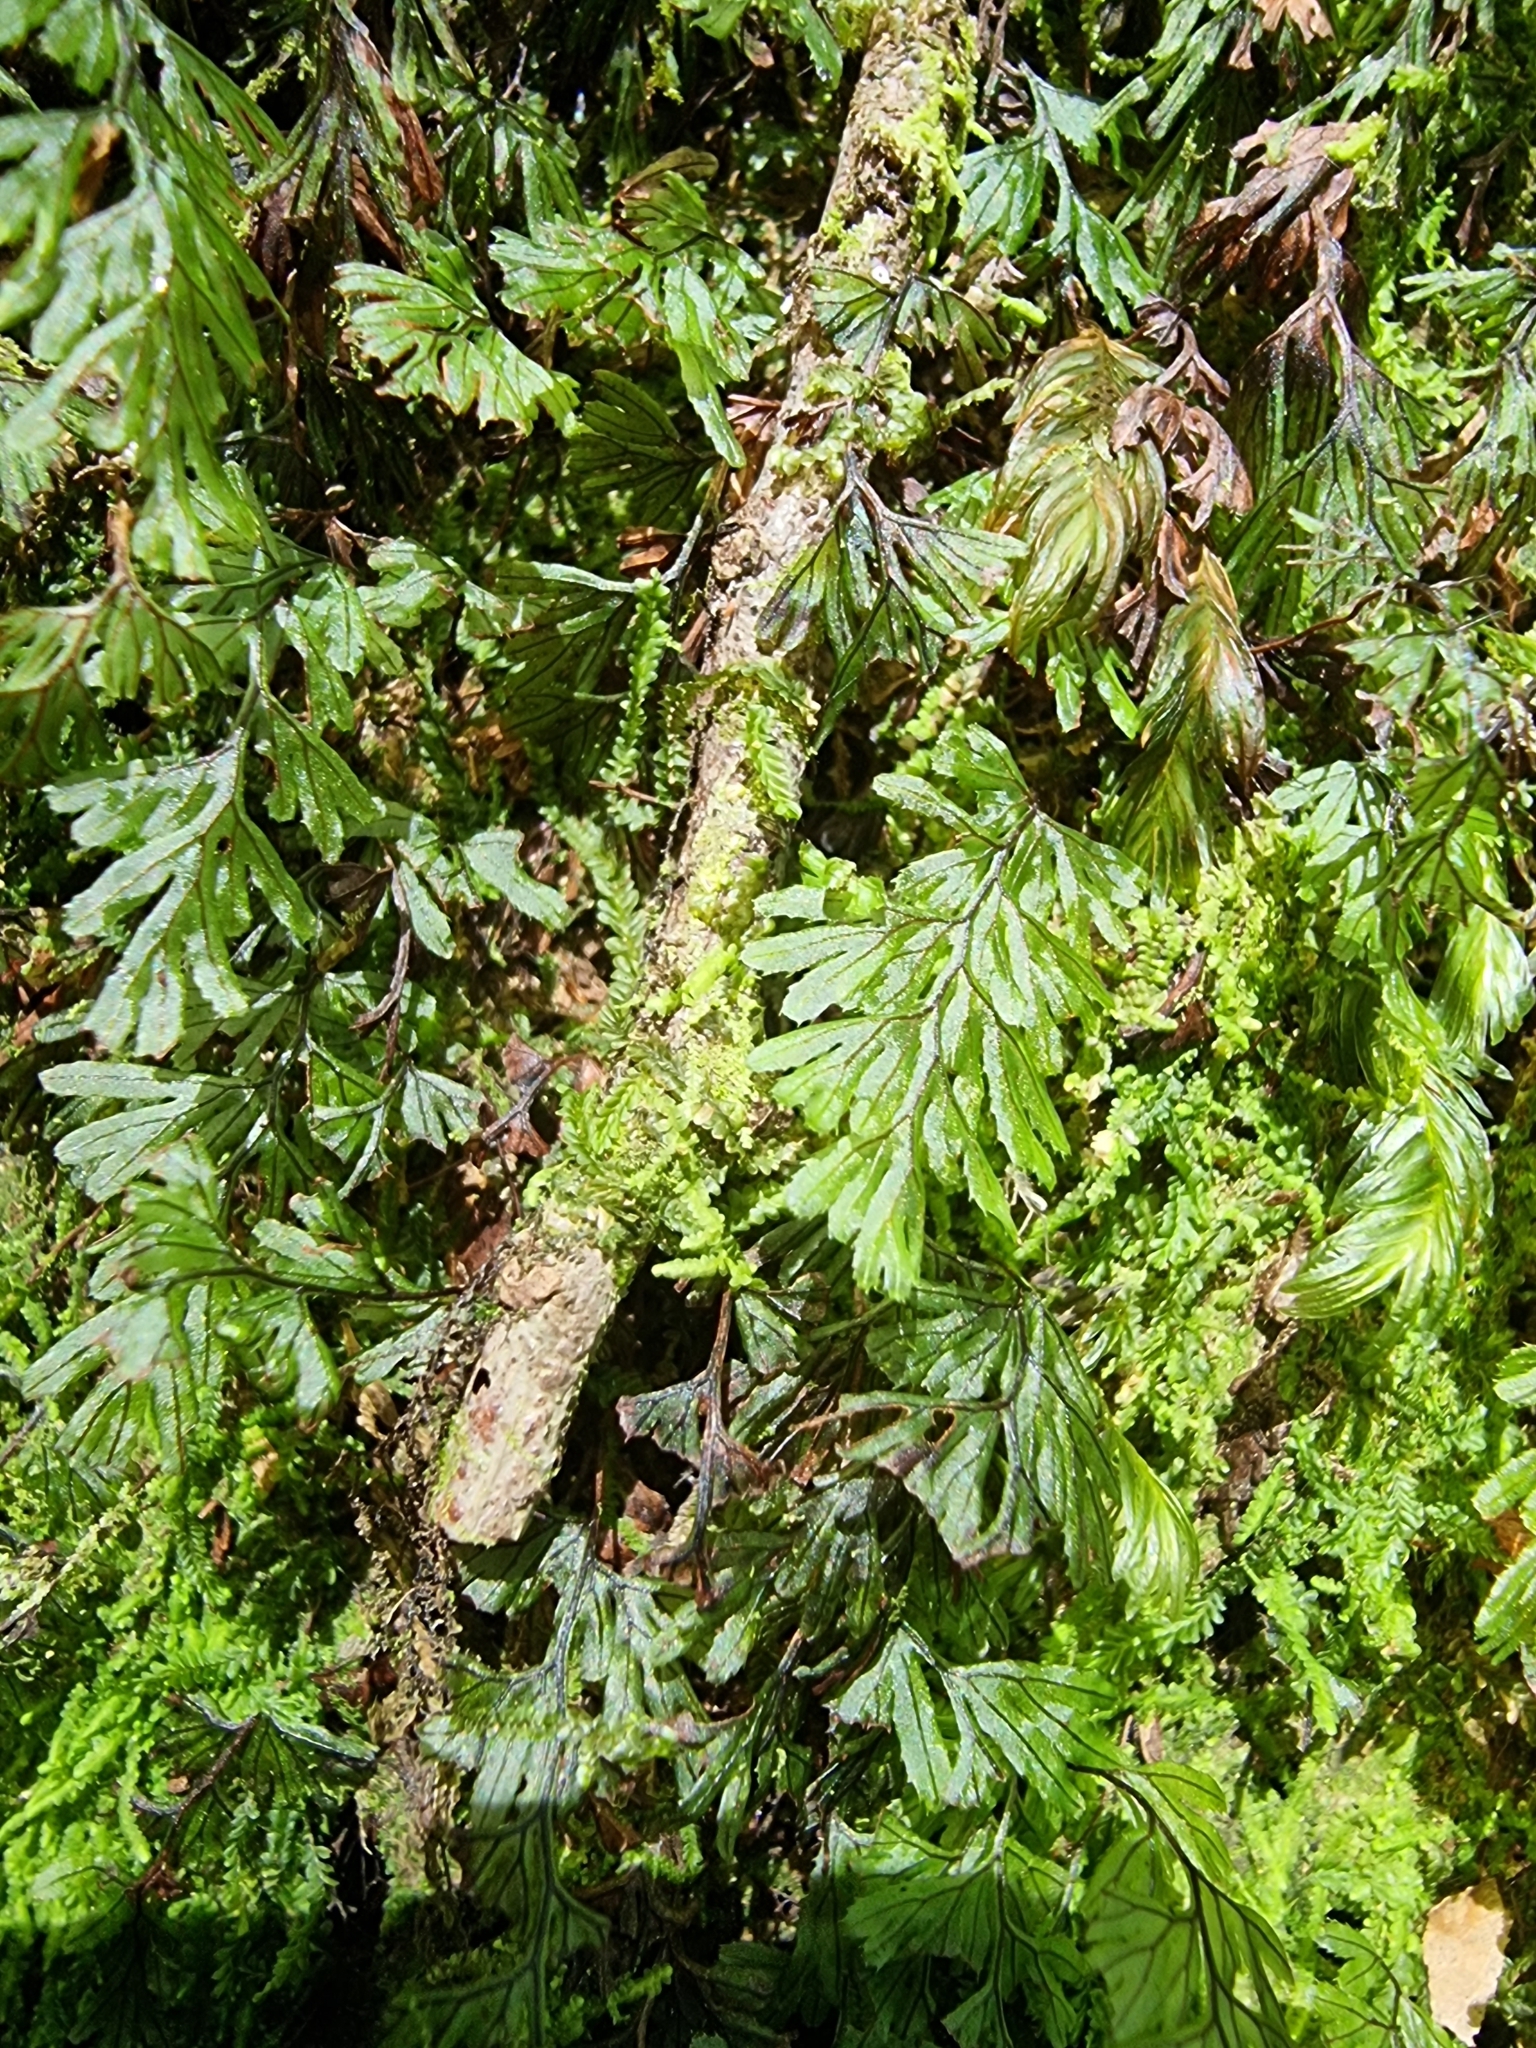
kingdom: Plantae
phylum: Tracheophyta
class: Polypodiopsida
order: Hymenophyllales
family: Hymenophyllaceae
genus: Hymenophyllum
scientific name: Hymenophyllum tunbrigense
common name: Tunbridge filmy fern
